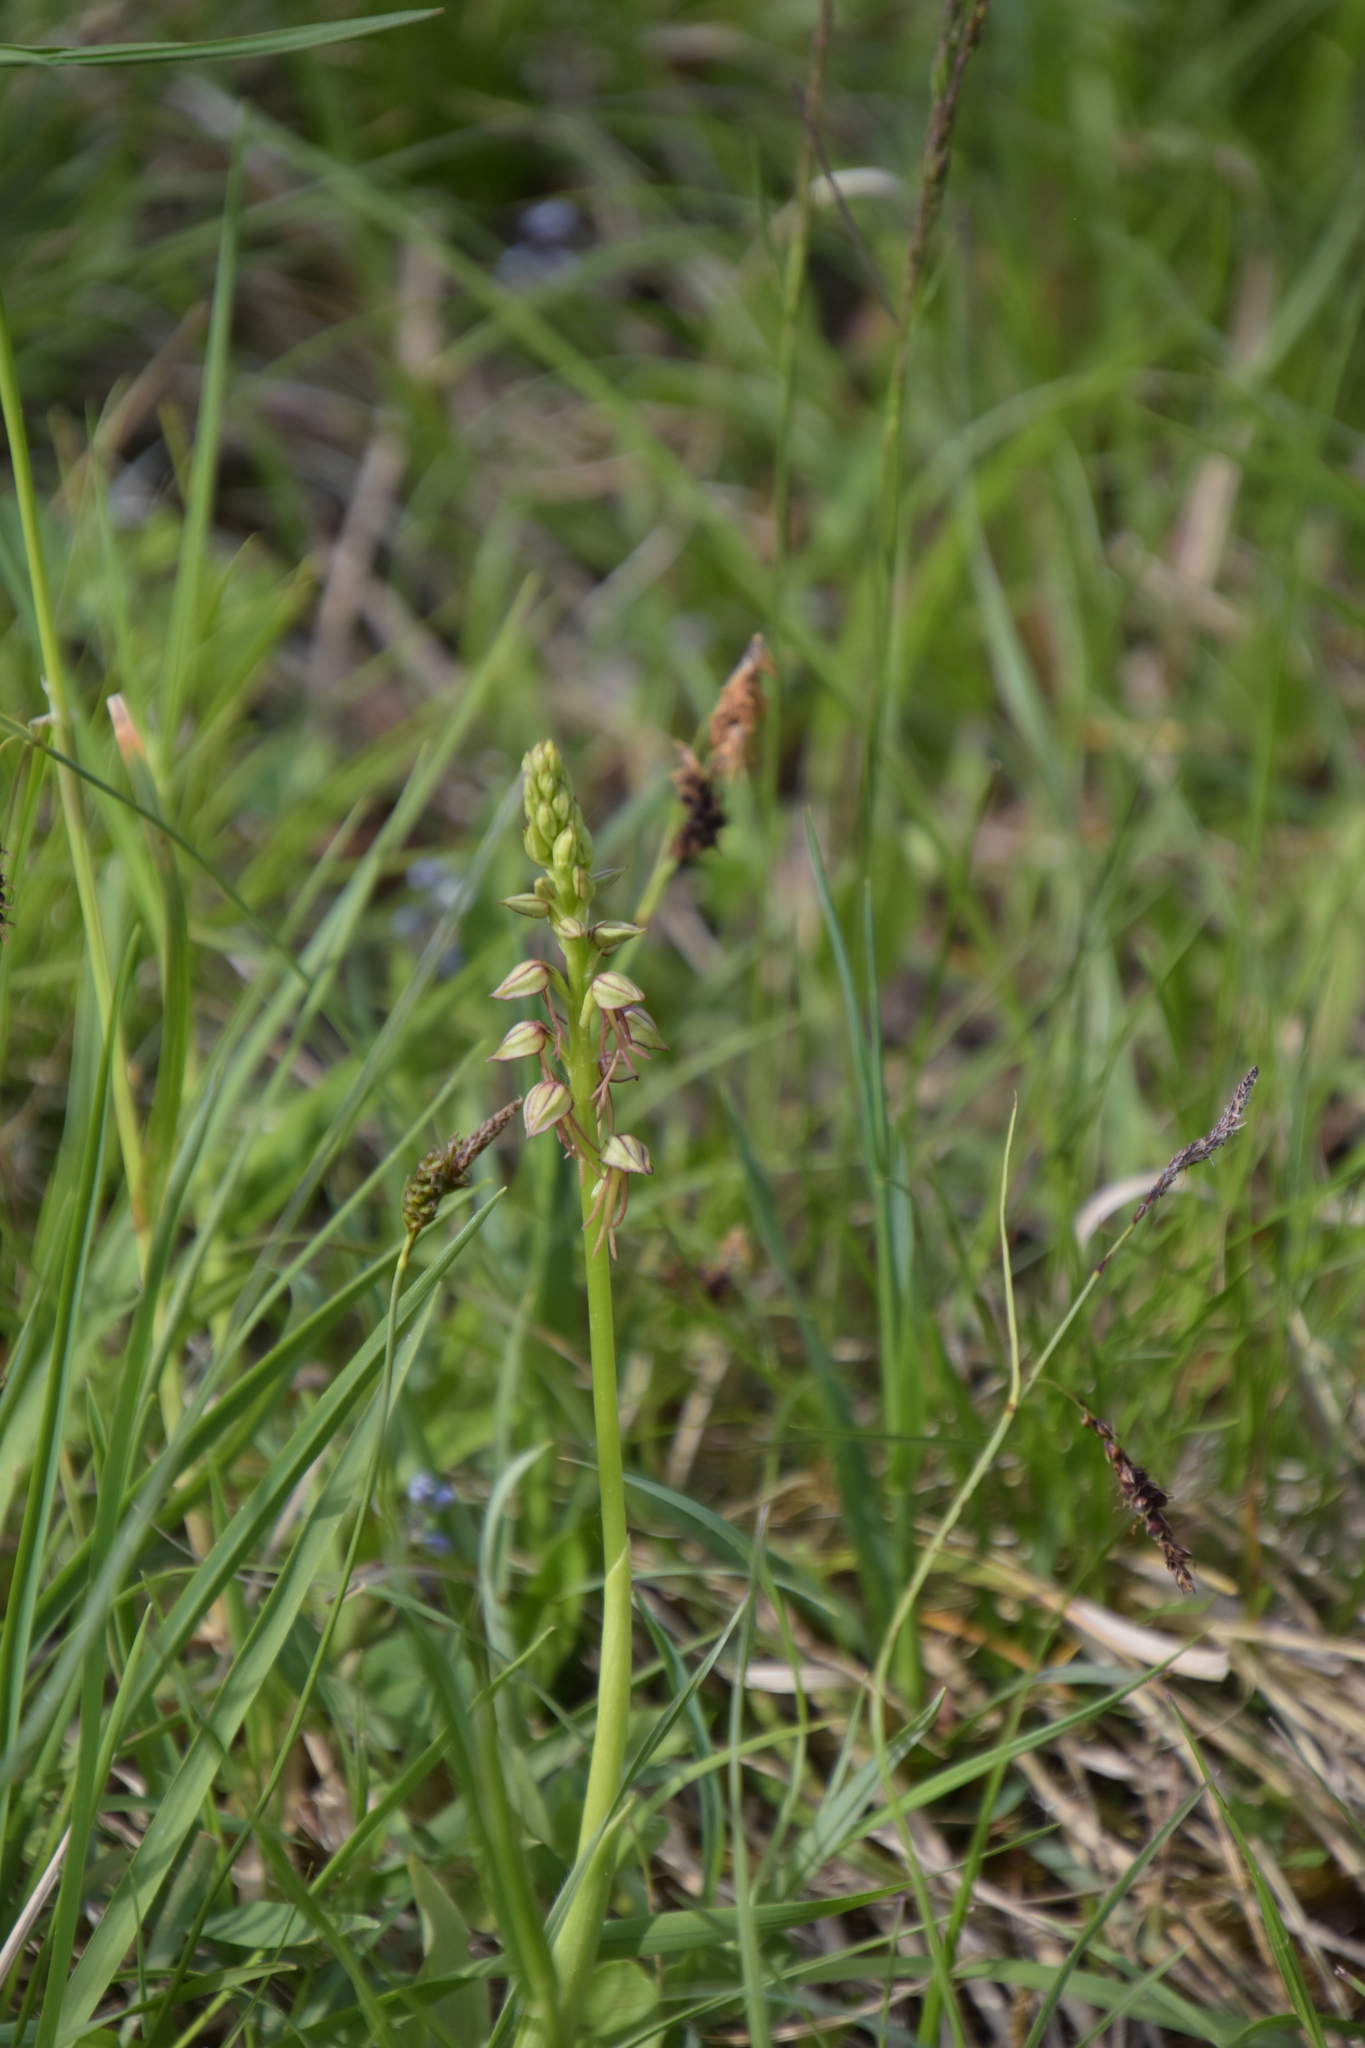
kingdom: Plantae
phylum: Tracheophyta
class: Liliopsida
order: Asparagales
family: Orchidaceae
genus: Orchis
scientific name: Orchis anthropophora
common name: Man orchid
